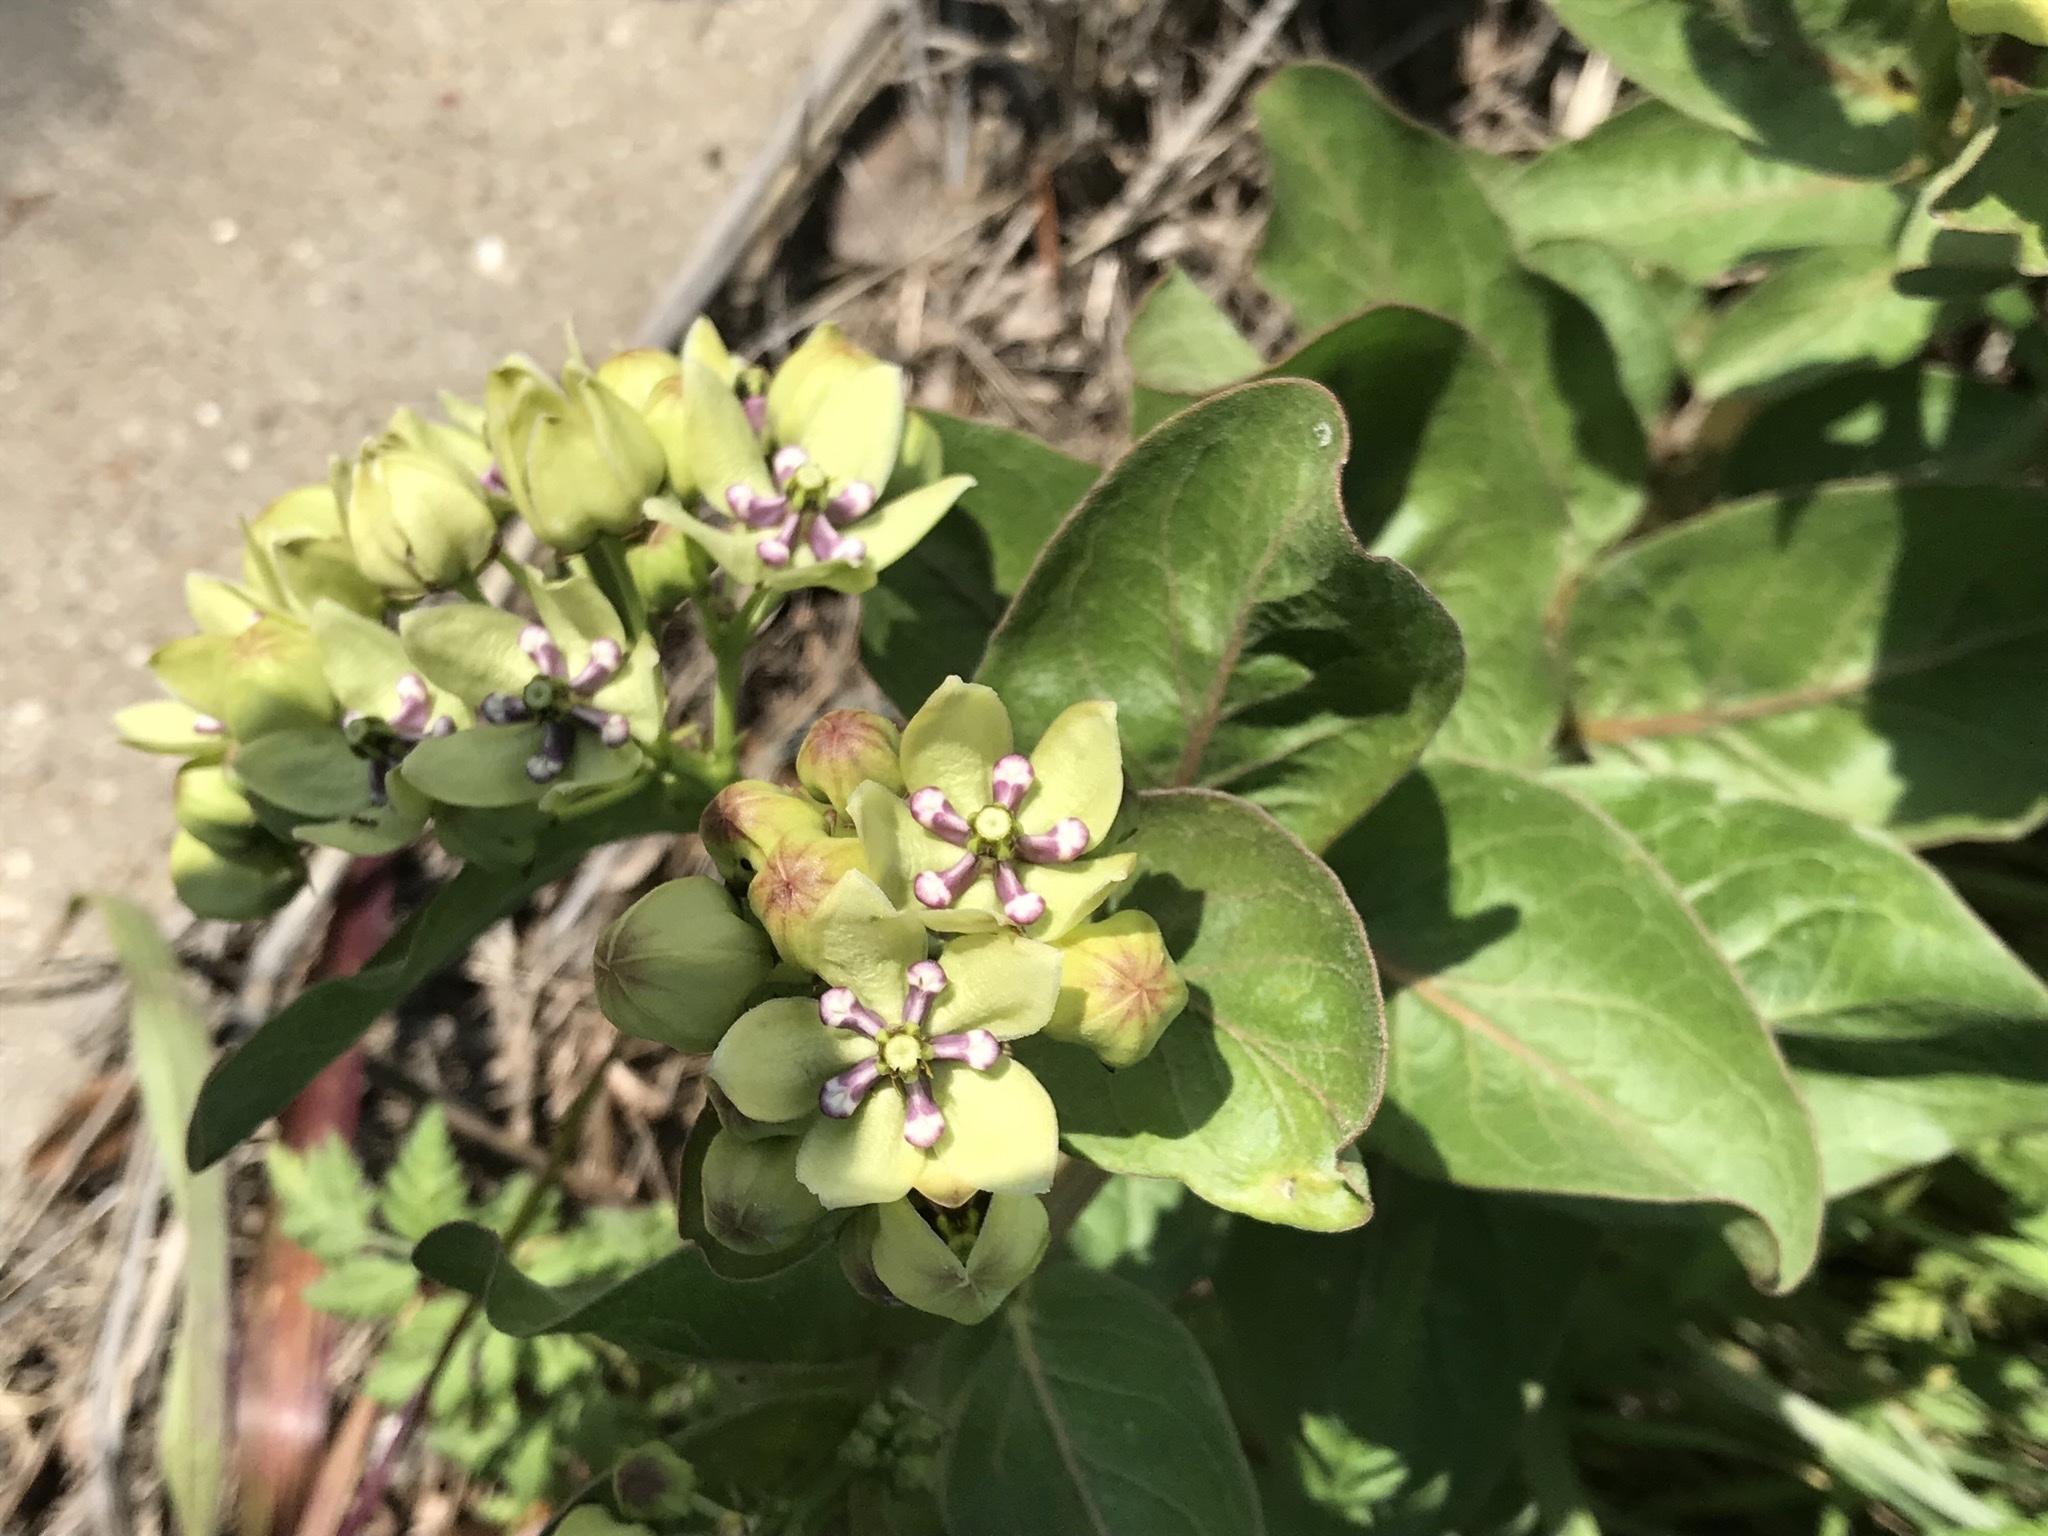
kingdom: Plantae
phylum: Tracheophyta
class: Magnoliopsida
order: Gentianales
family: Apocynaceae
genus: Asclepias
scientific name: Asclepias viridis
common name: Antelope-horns
